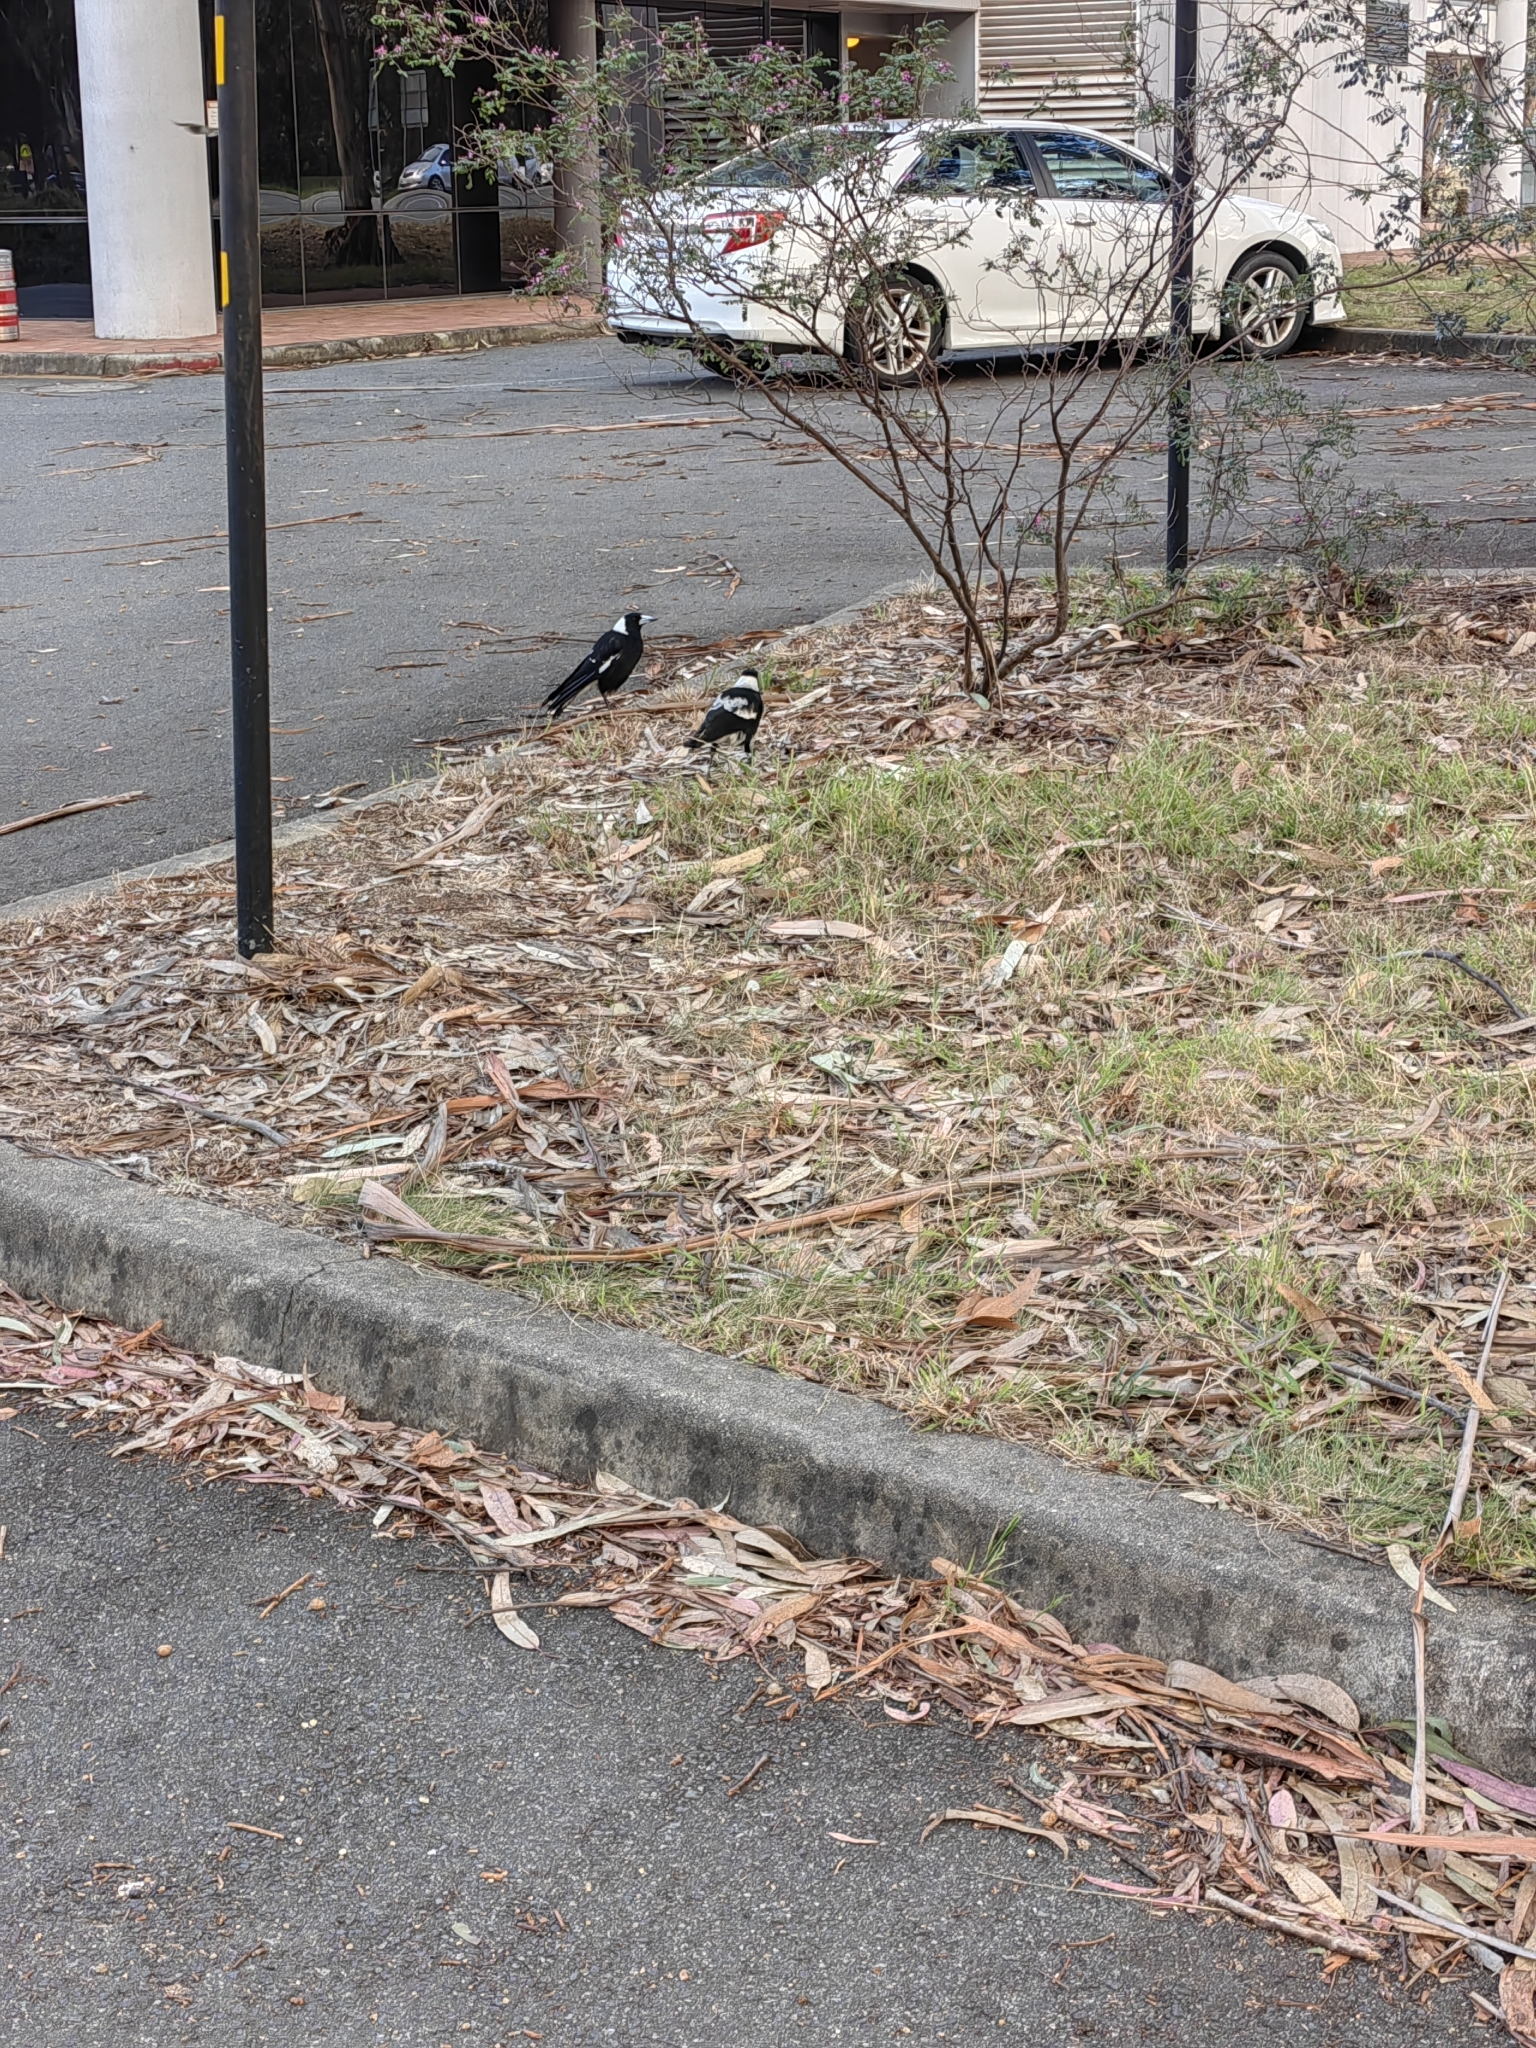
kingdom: Animalia
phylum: Chordata
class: Aves
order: Passeriformes
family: Cracticidae
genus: Gymnorhina
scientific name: Gymnorhina tibicen
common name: Australian magpie
